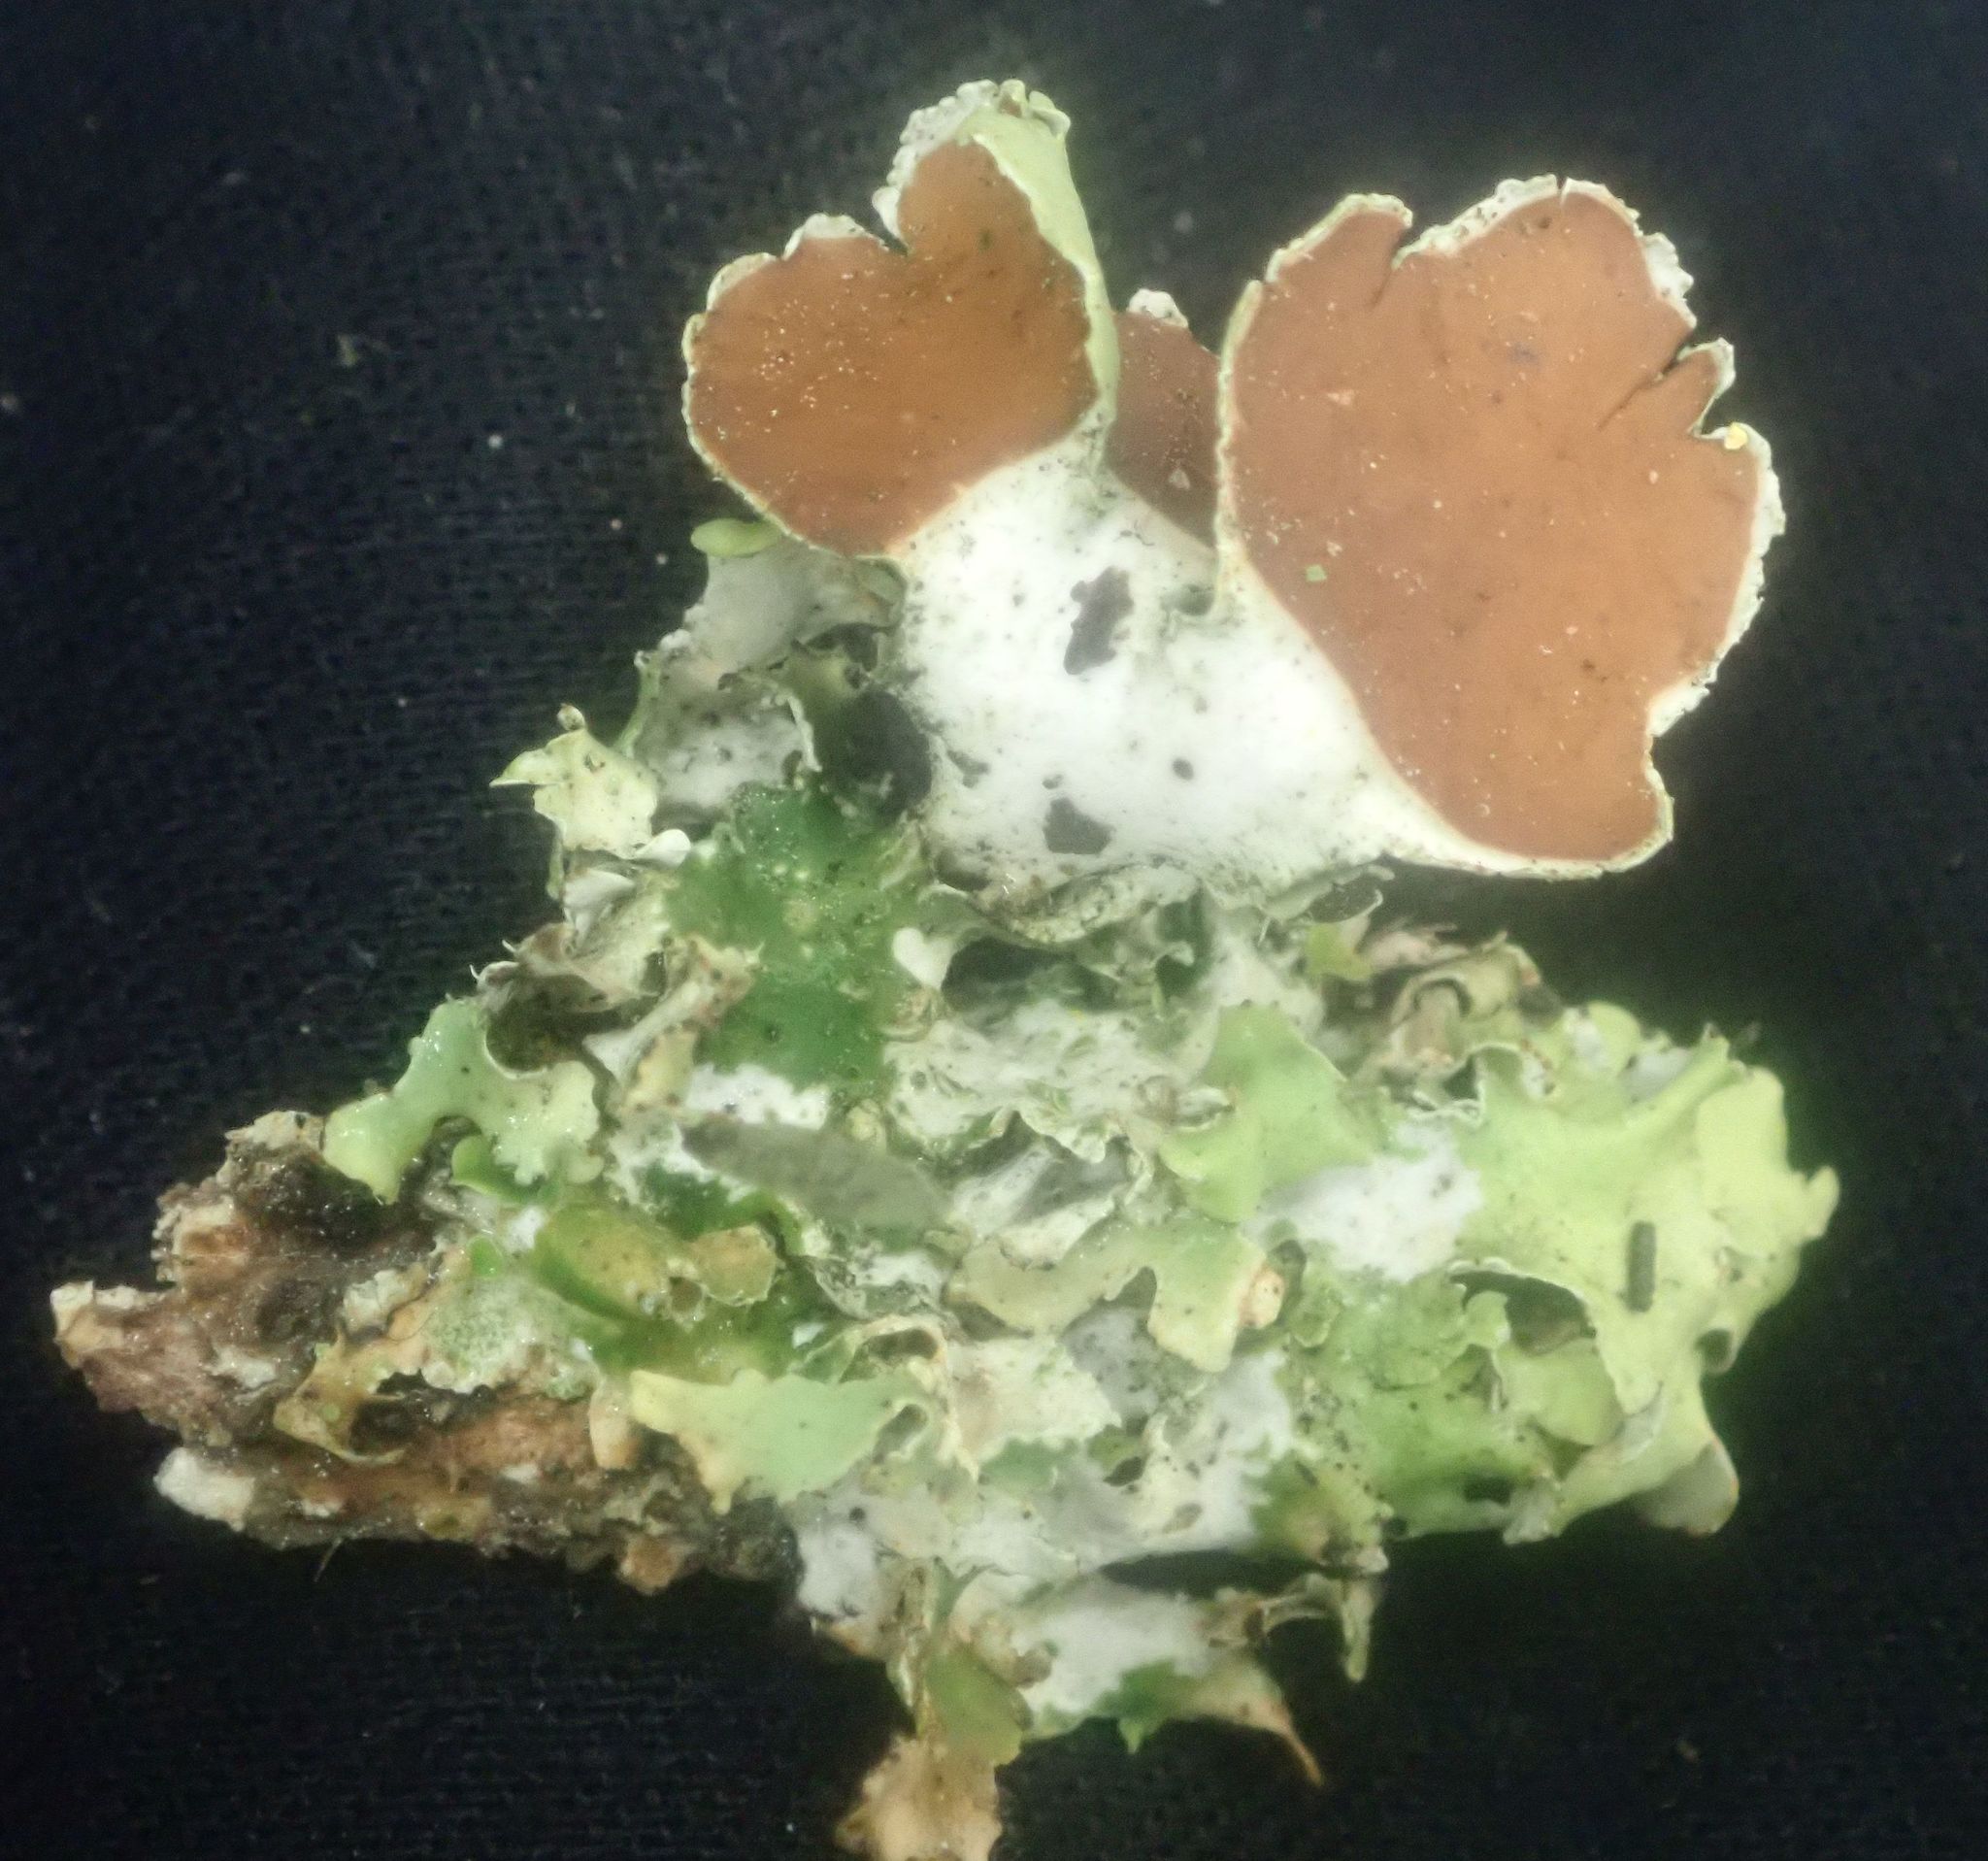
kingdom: Fungi
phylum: Ascomycota
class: Lecanoromycetes
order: Peltigerales
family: Nephromataceae
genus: Nephroma
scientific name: Nephroma australe
